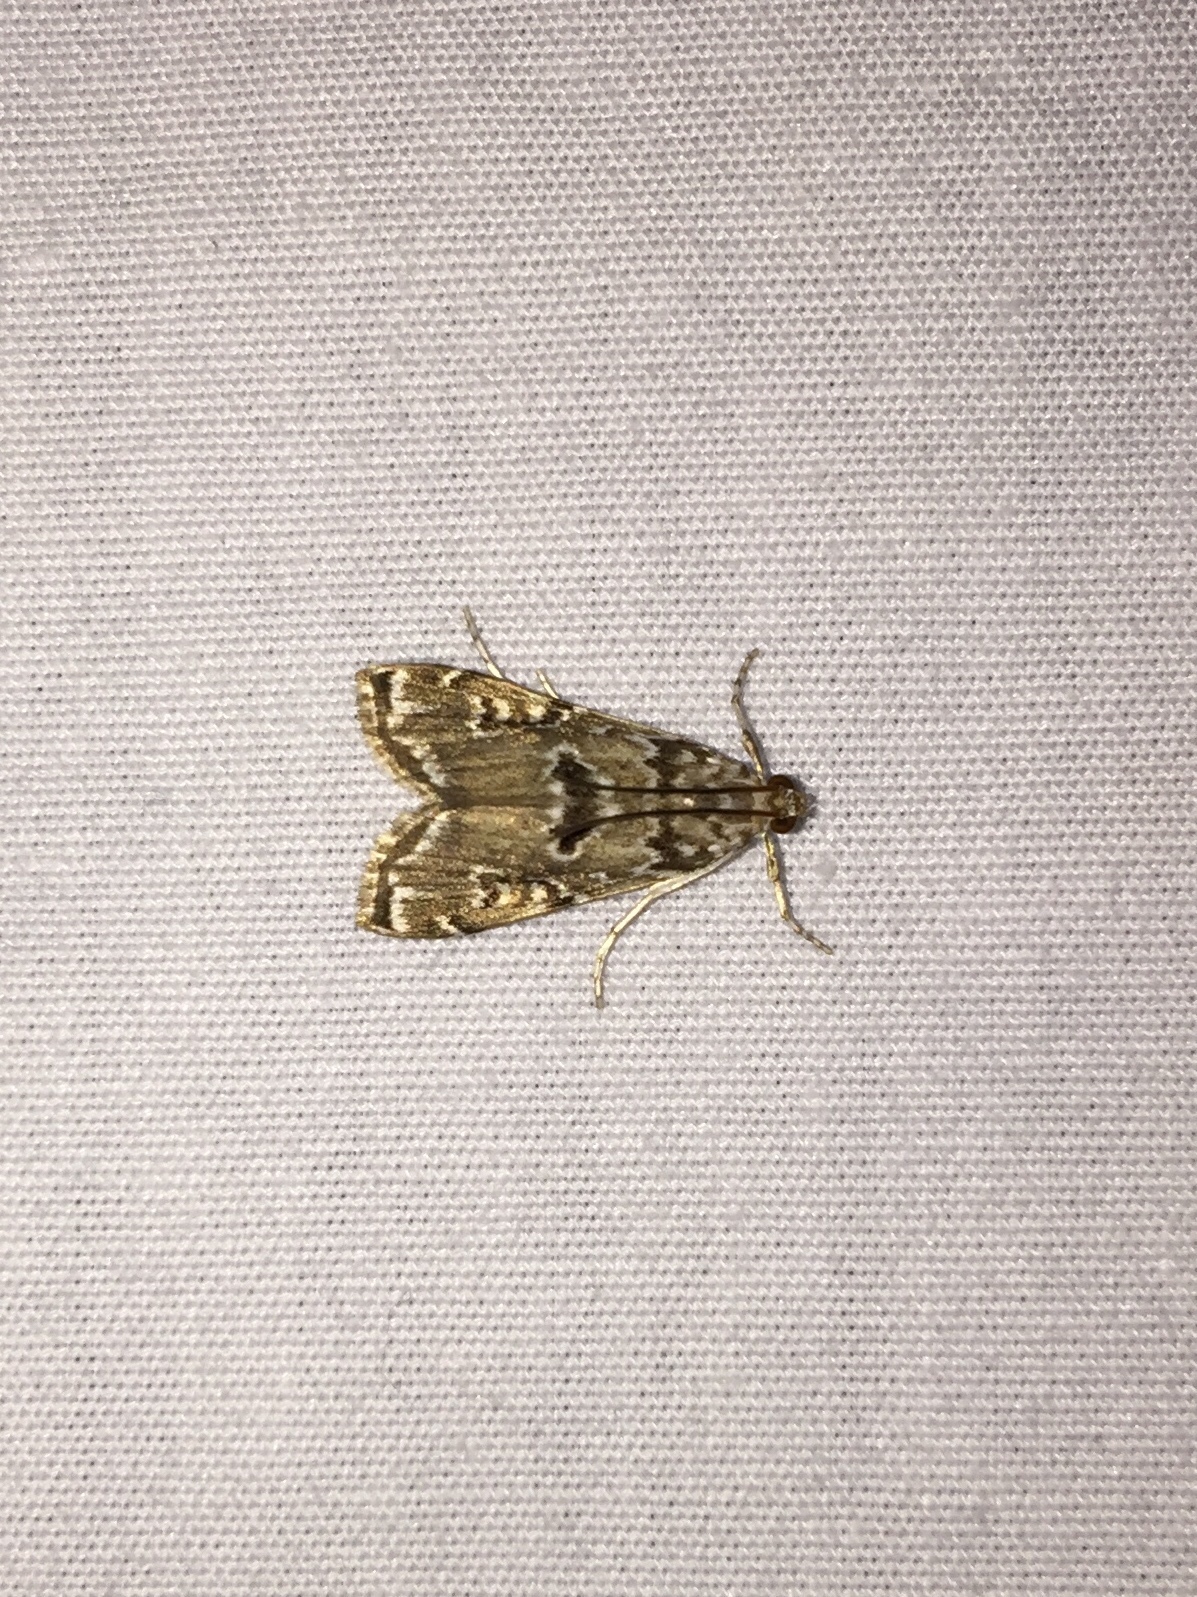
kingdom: Animalia
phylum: Arthropoda
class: Insecta
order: Lepidoptera
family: Crambidae
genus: Elophila
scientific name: Elophila gyralis
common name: Waterlily borer moth
